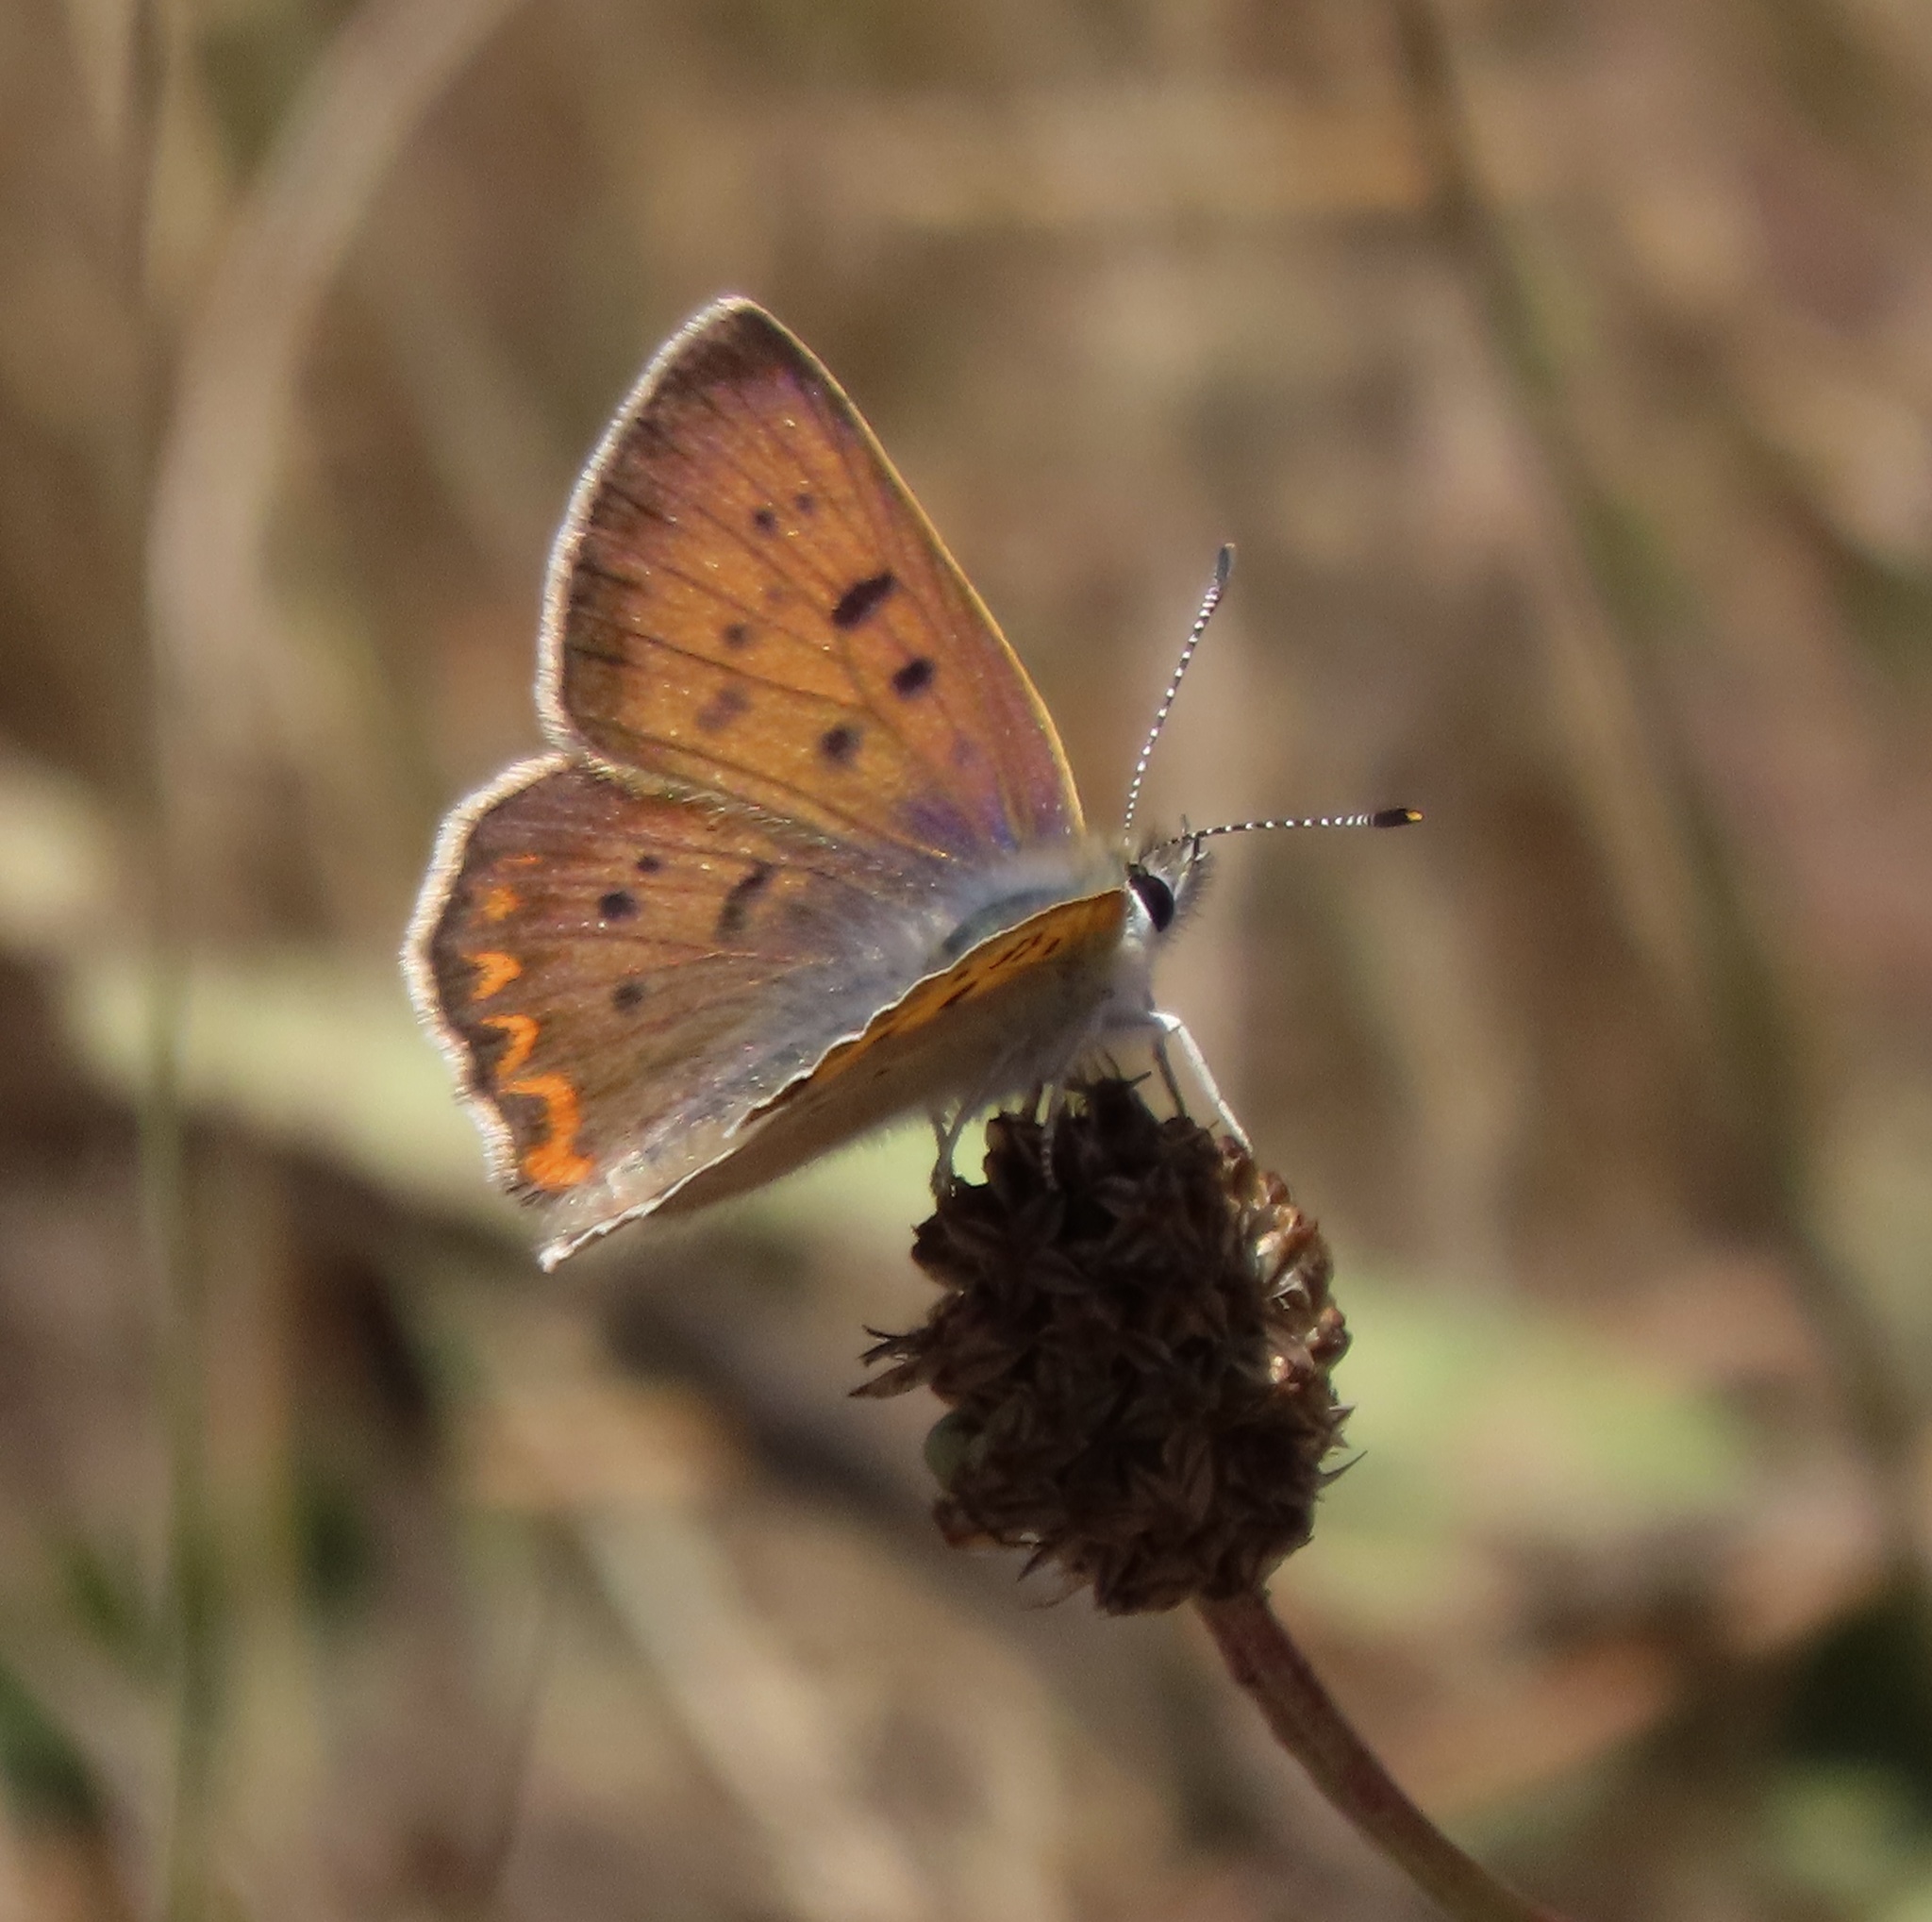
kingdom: Animalia
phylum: Arthropoda
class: Insecta
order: Lepidoptera
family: Lycaenidae
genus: Tharsalea
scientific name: Tharsalea helloides
